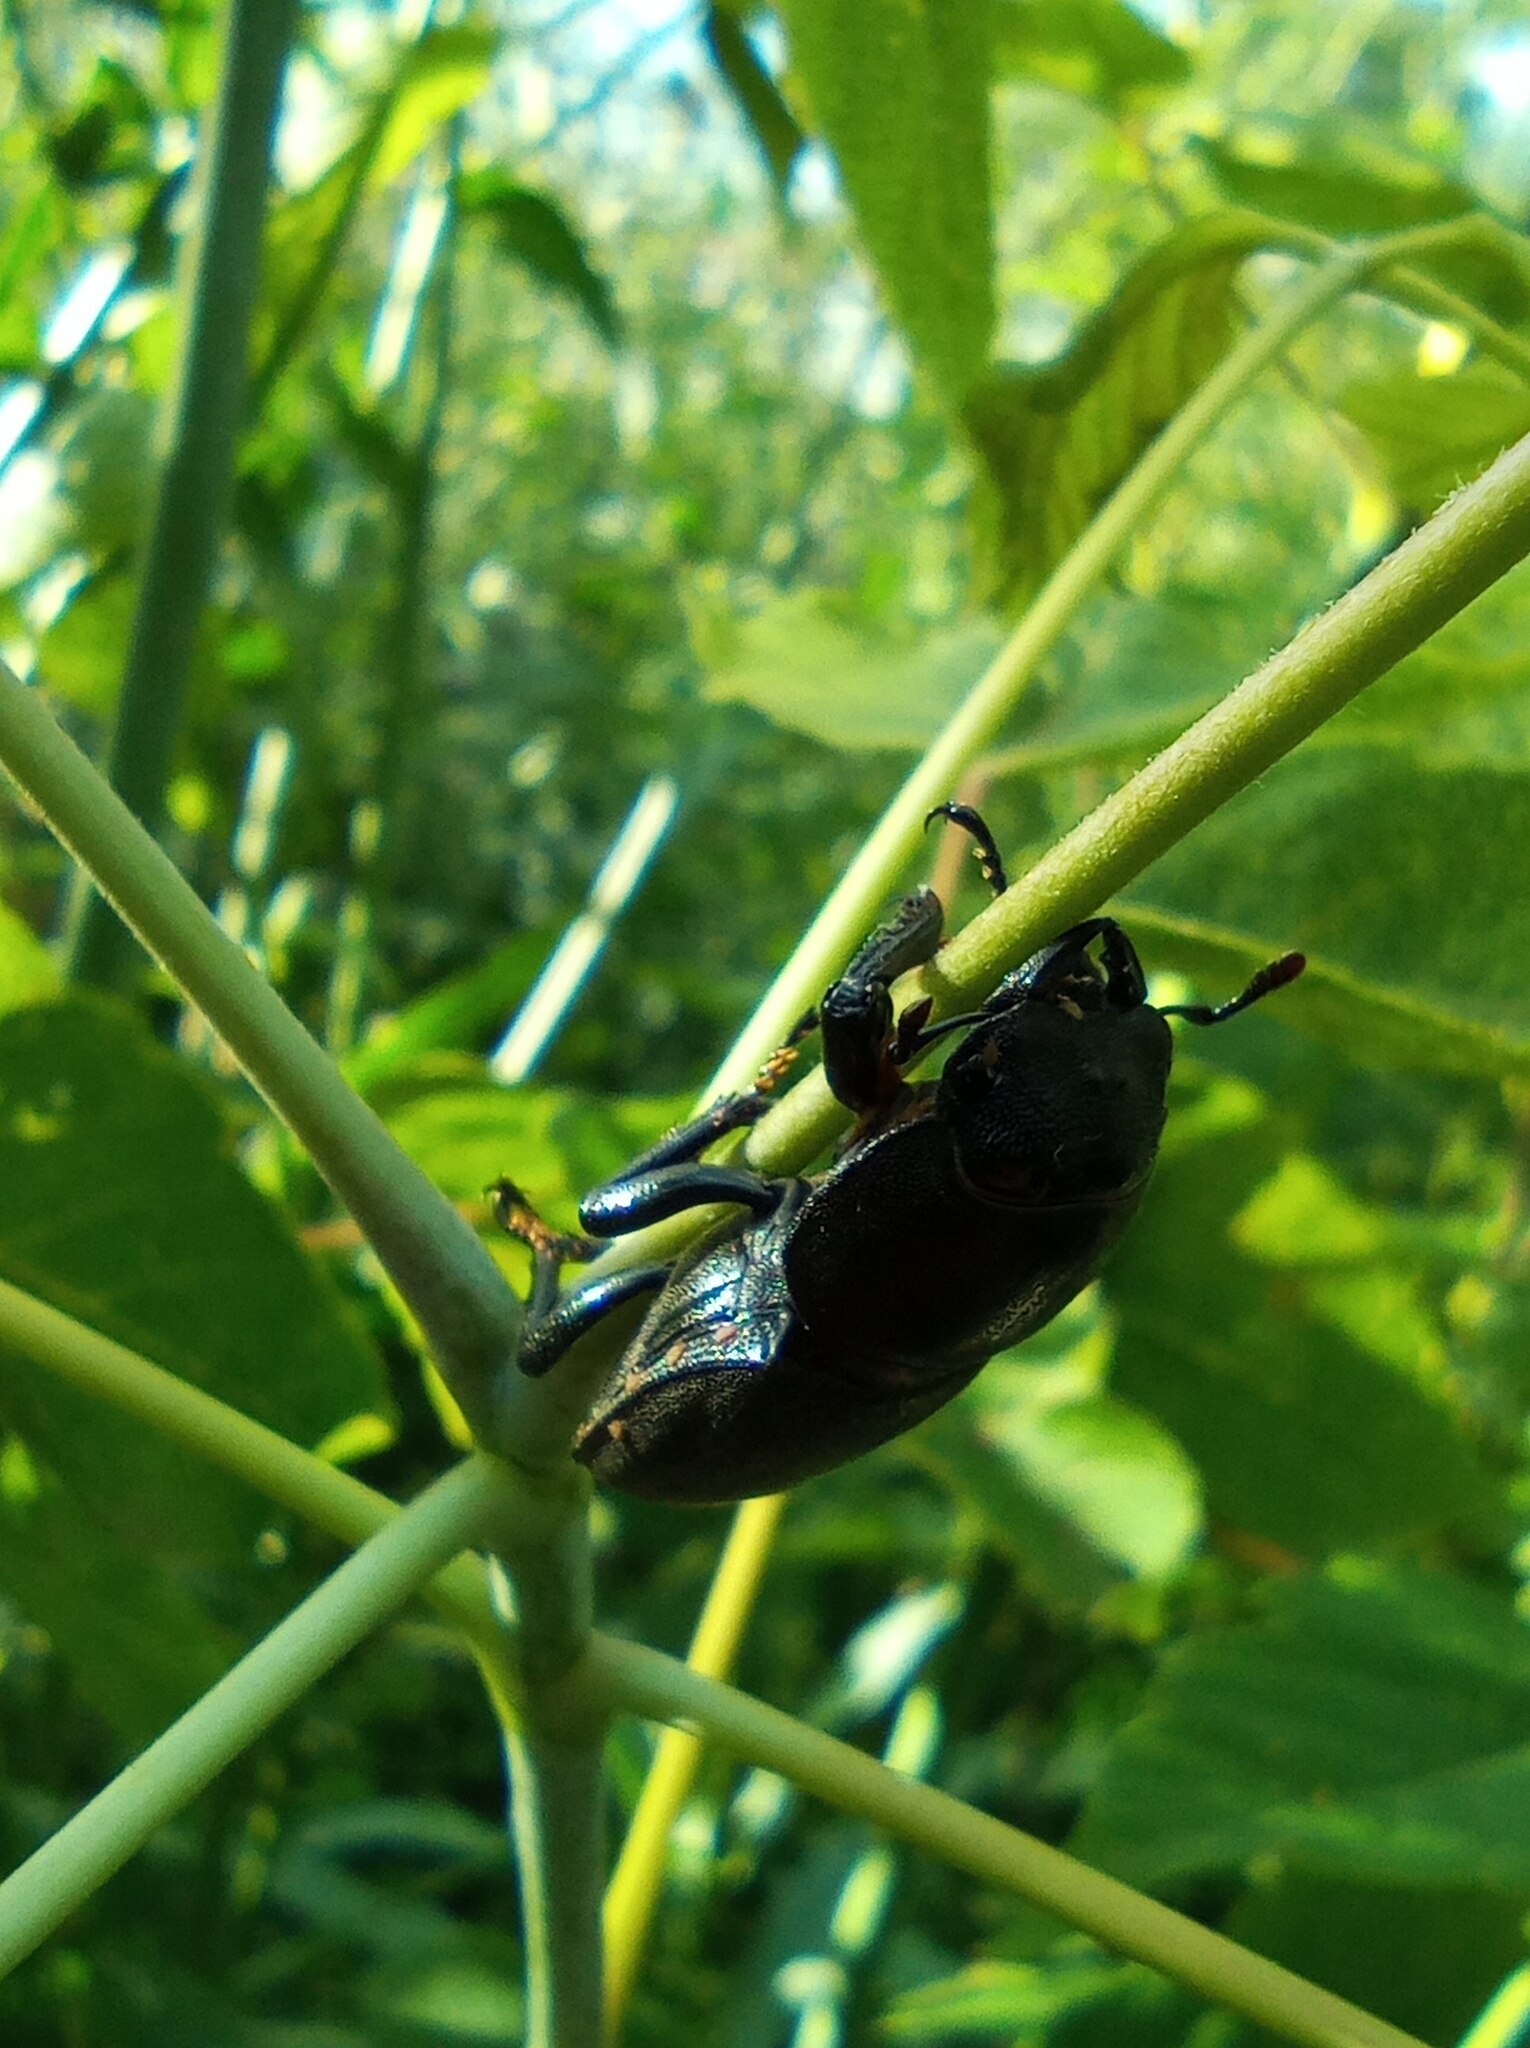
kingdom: Animalia
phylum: Arthropoda
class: Insecta
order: Coleoptera
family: Lucanidae
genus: Dorcus
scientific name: Dorcus parallelipipedus
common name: Lesser stag beetle
